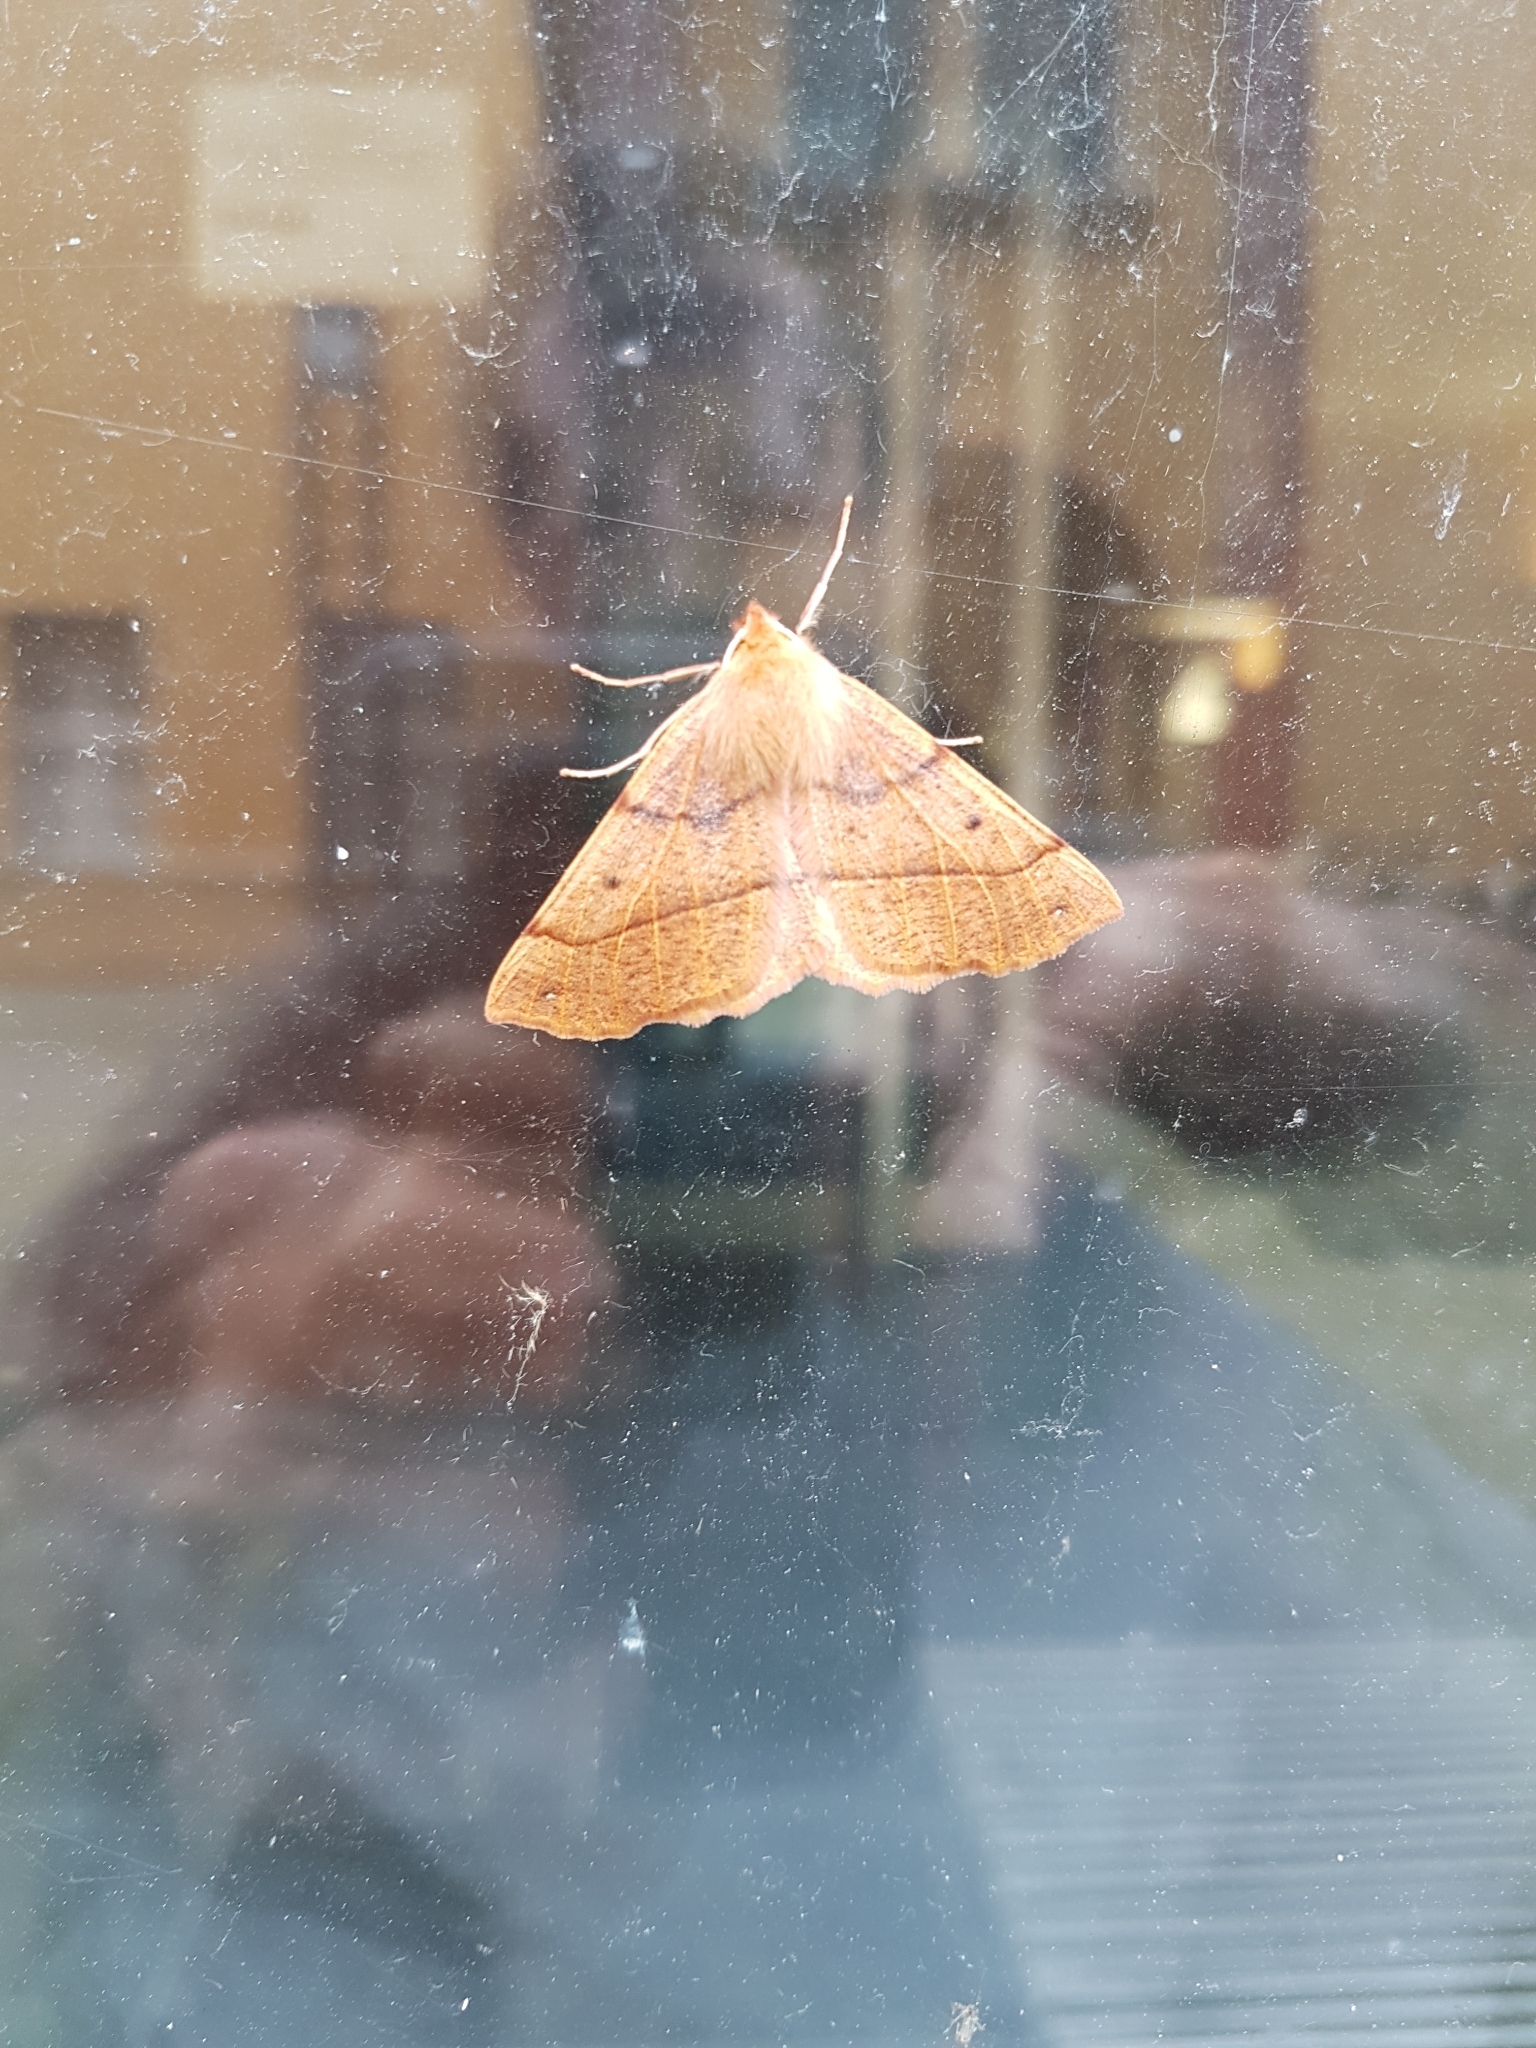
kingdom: Animalia
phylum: Arthropoda
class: Insecta
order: Lepidoptera
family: Geometridae
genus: Colotois
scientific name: Colotois pennaria
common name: Feathered thorn
